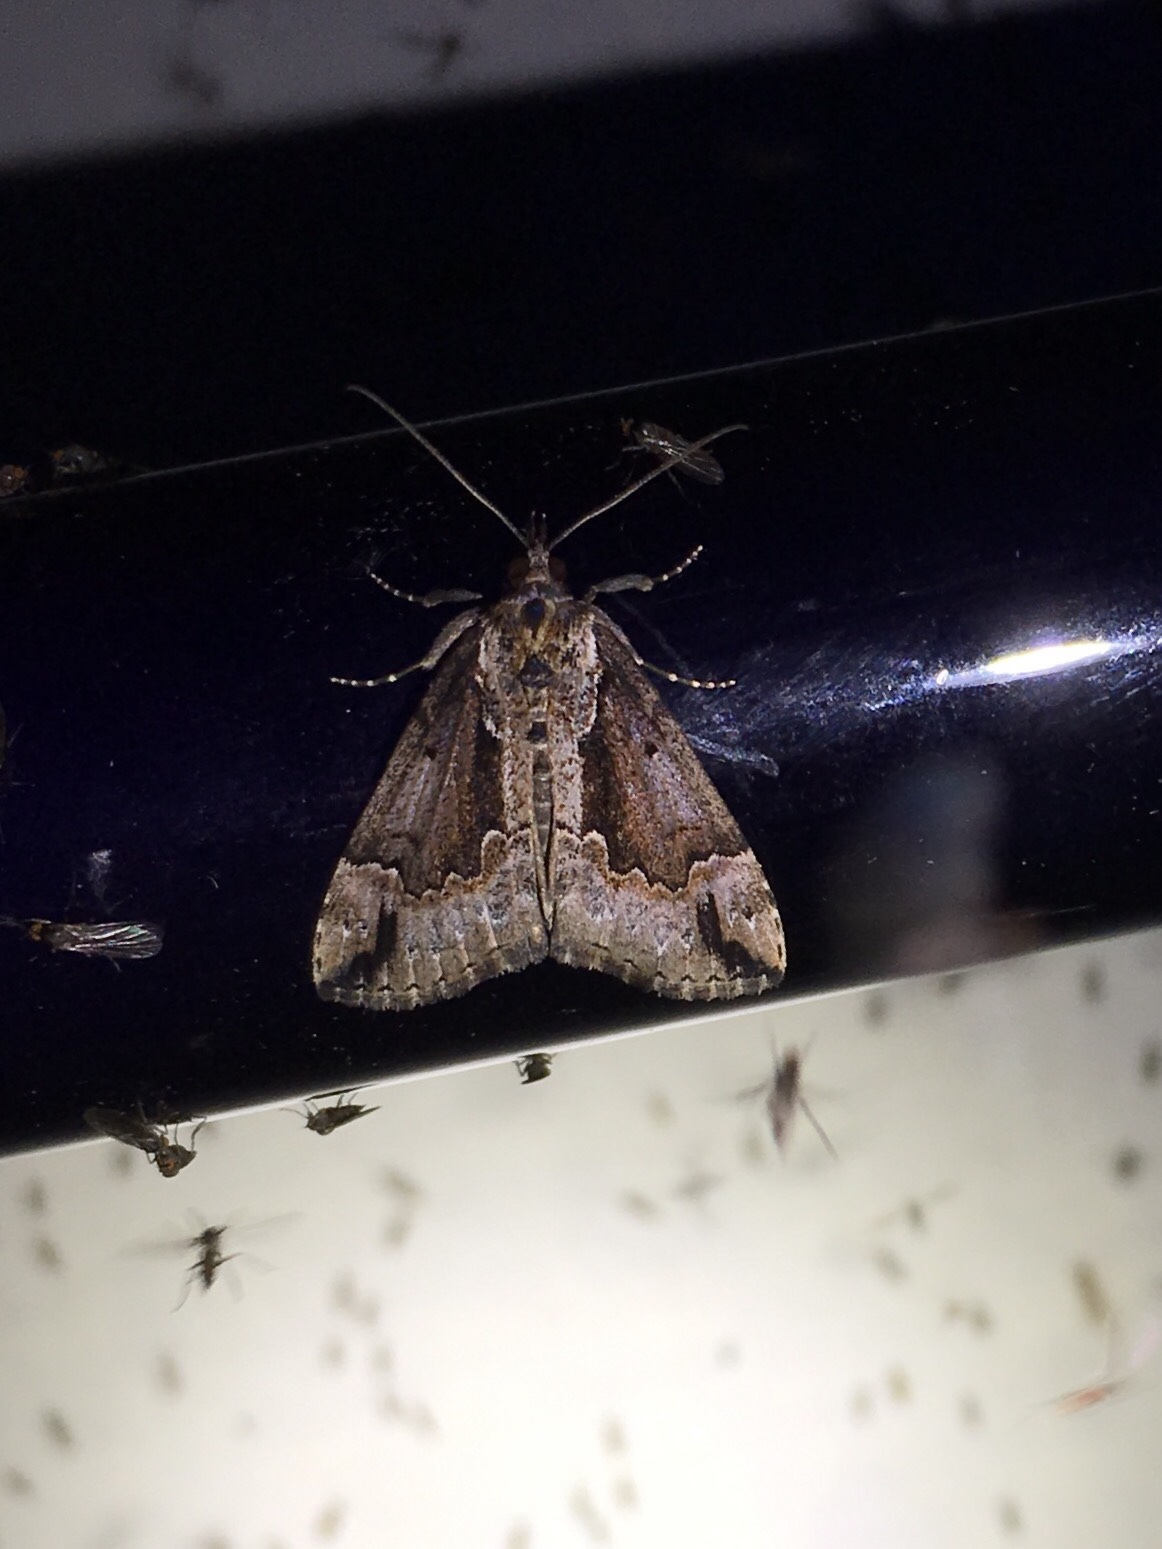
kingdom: Animalia
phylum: Arthropoda
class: Insecta
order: Lepidoptera
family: Erebidae
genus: Hypena
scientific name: Hypena baltimoralis
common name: Baltimore snout
